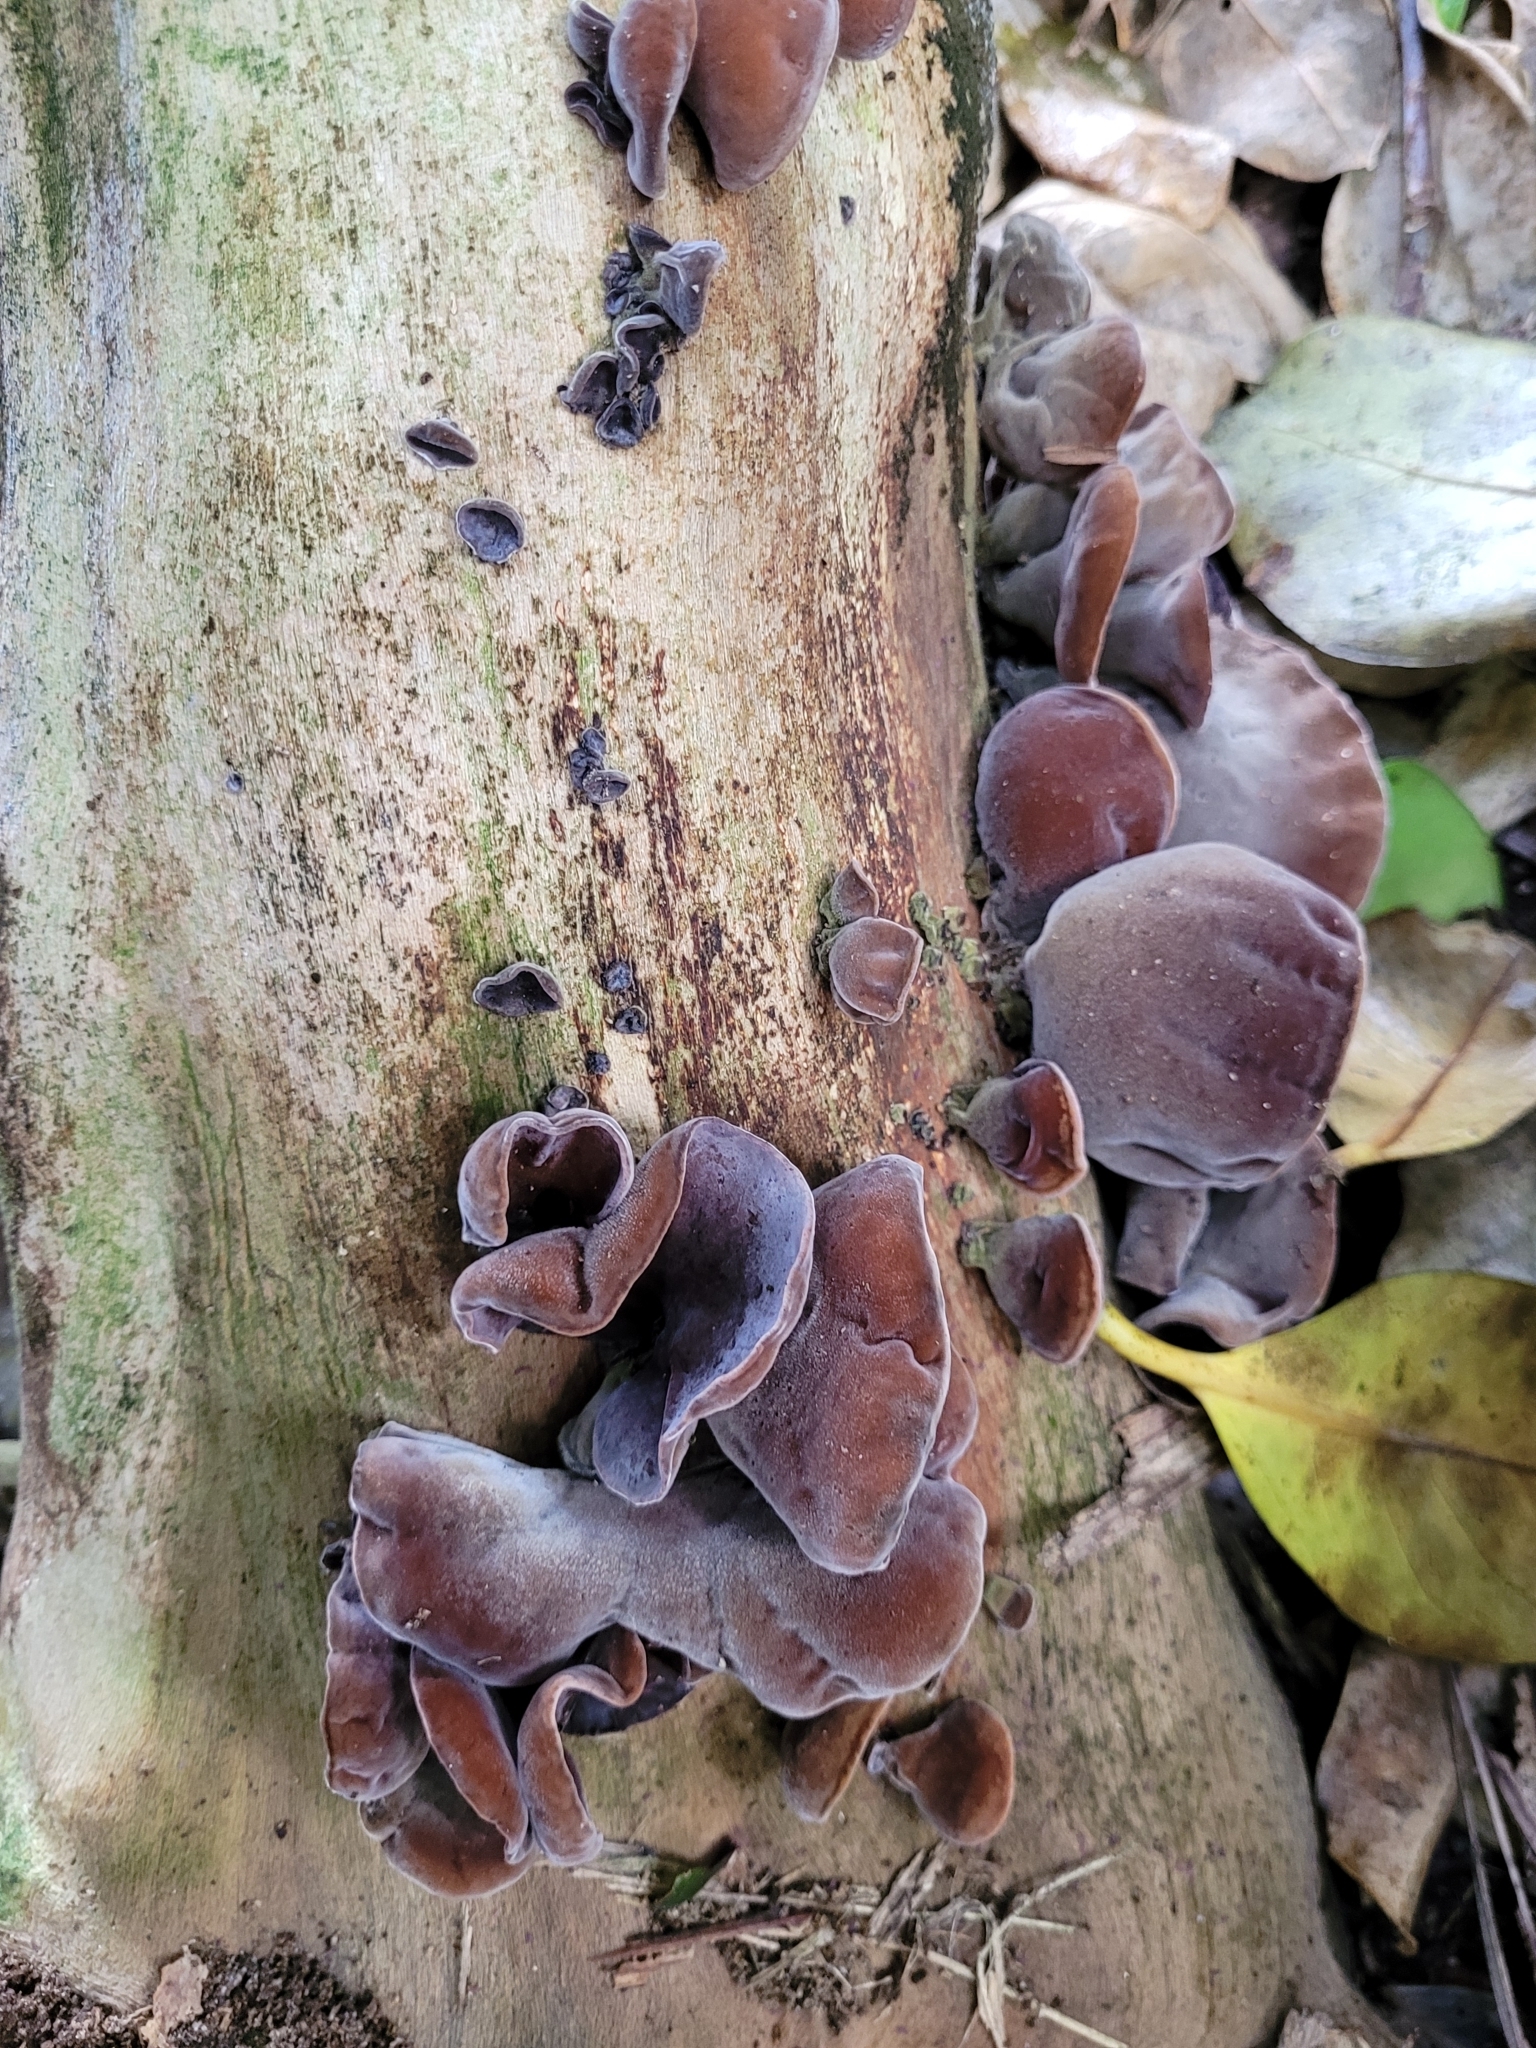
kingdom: Fungi
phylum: Basidiomycota
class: Agaricomycetes
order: Auriculariales
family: Auriculariaceae
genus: Auricularia
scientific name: Auricularia cornea
